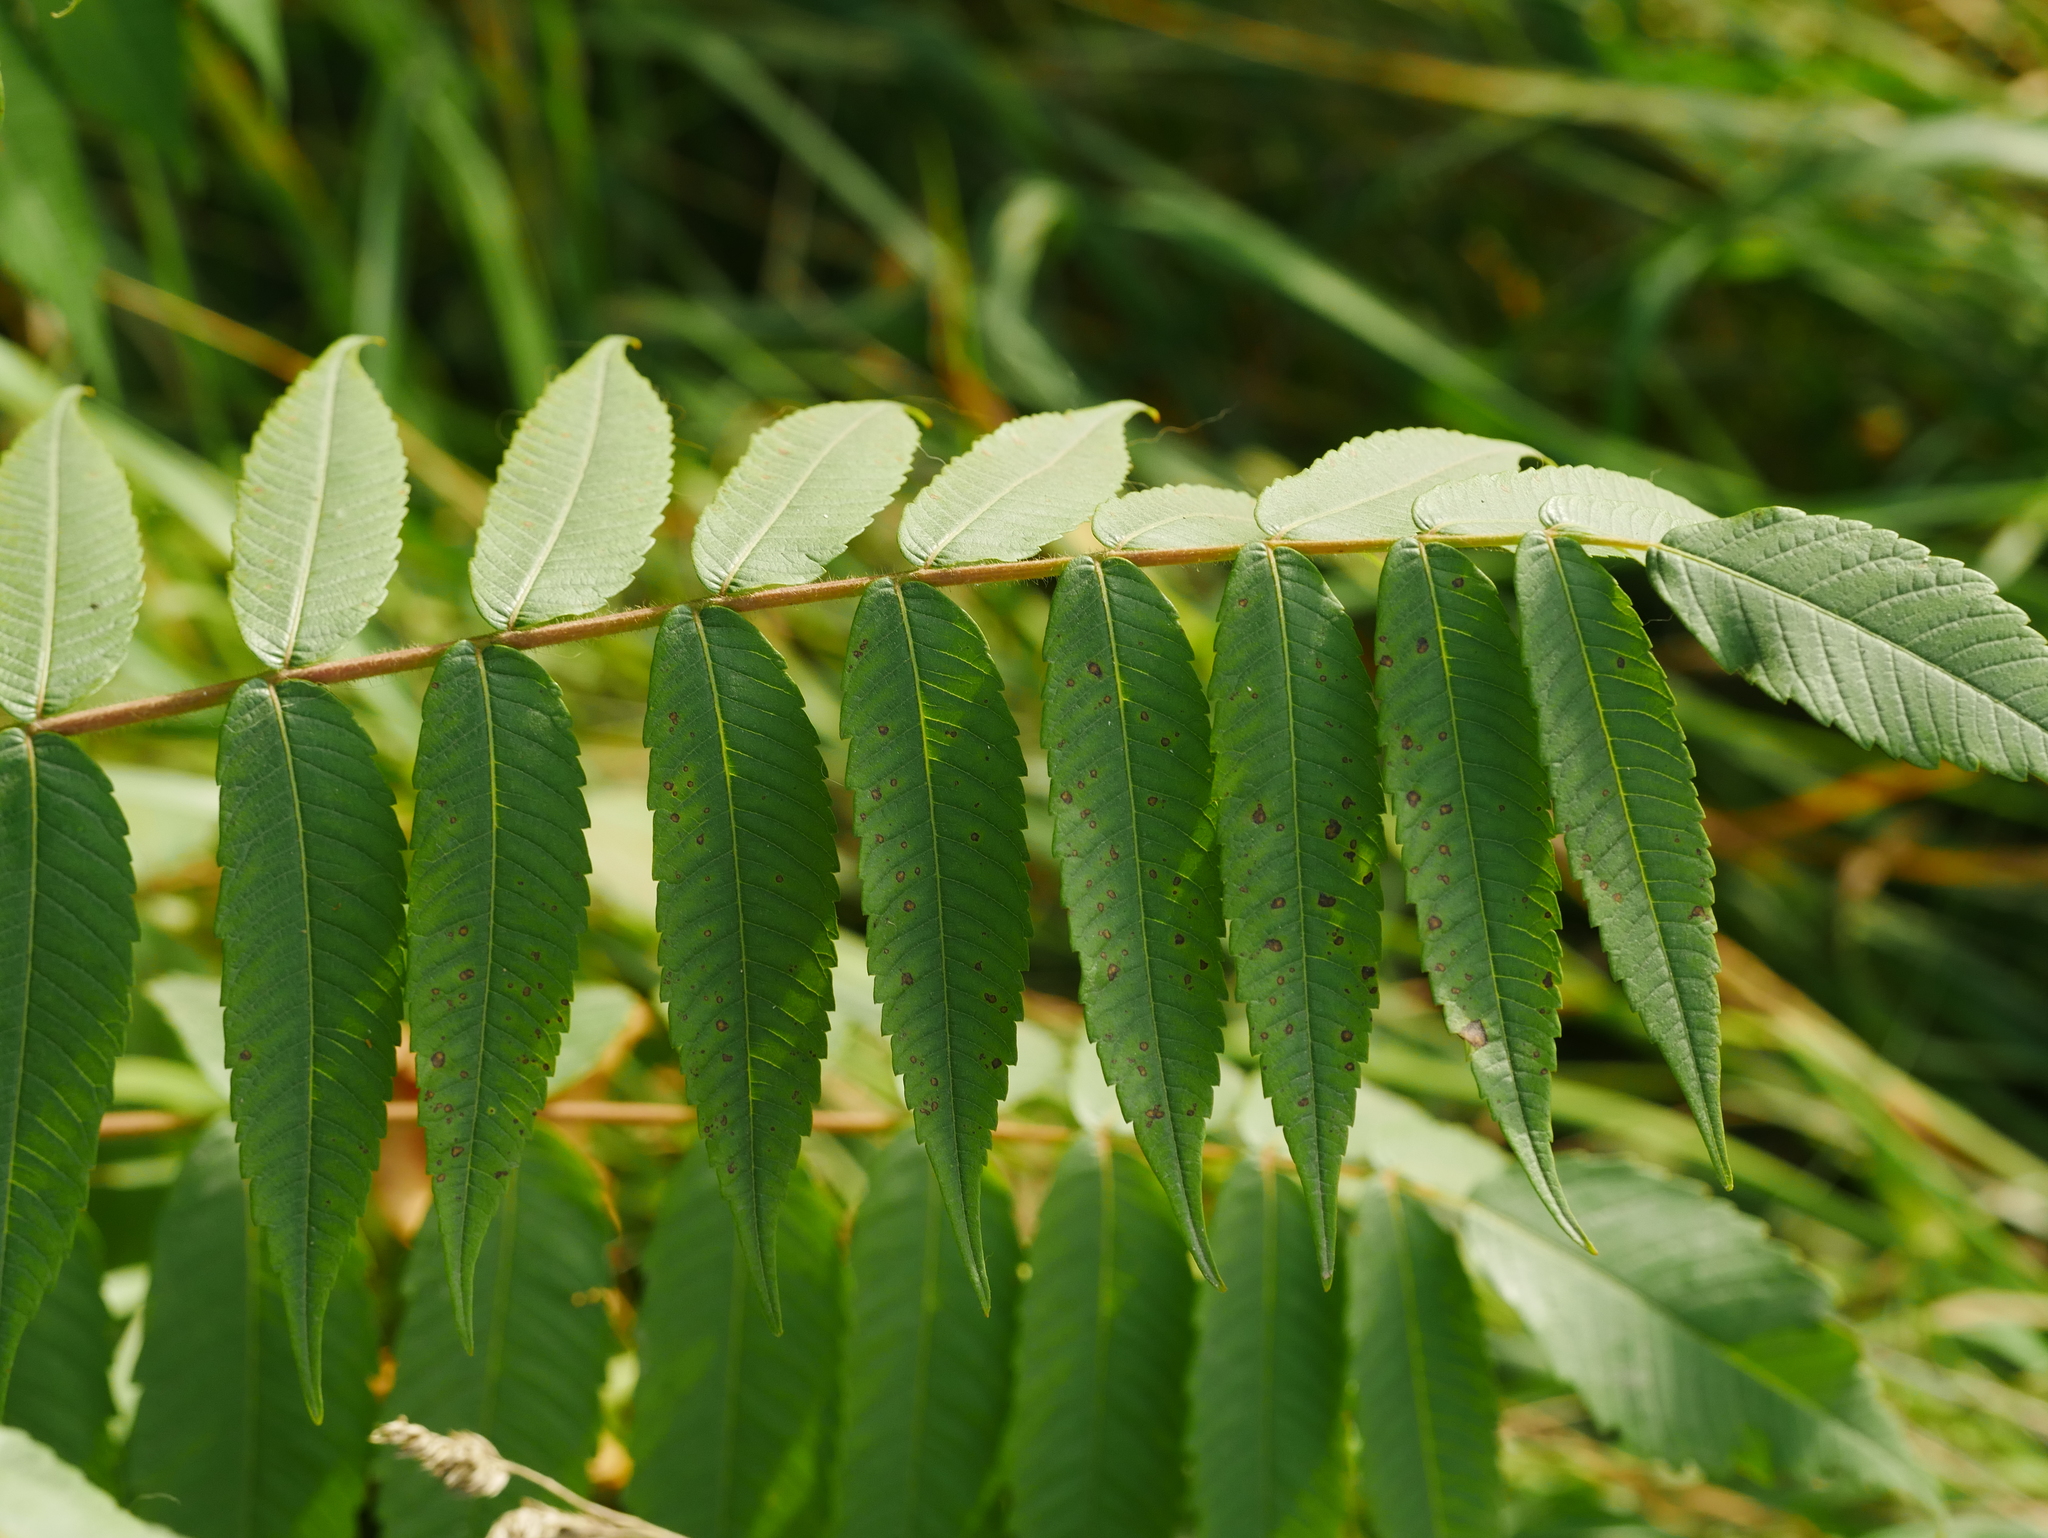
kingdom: Plantae
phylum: Tracheophyta
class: Magnoliopsida
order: Sapindales
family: Anacardiaceae
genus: Rhus
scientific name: Rhus typhina
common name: Staghorn sumac
